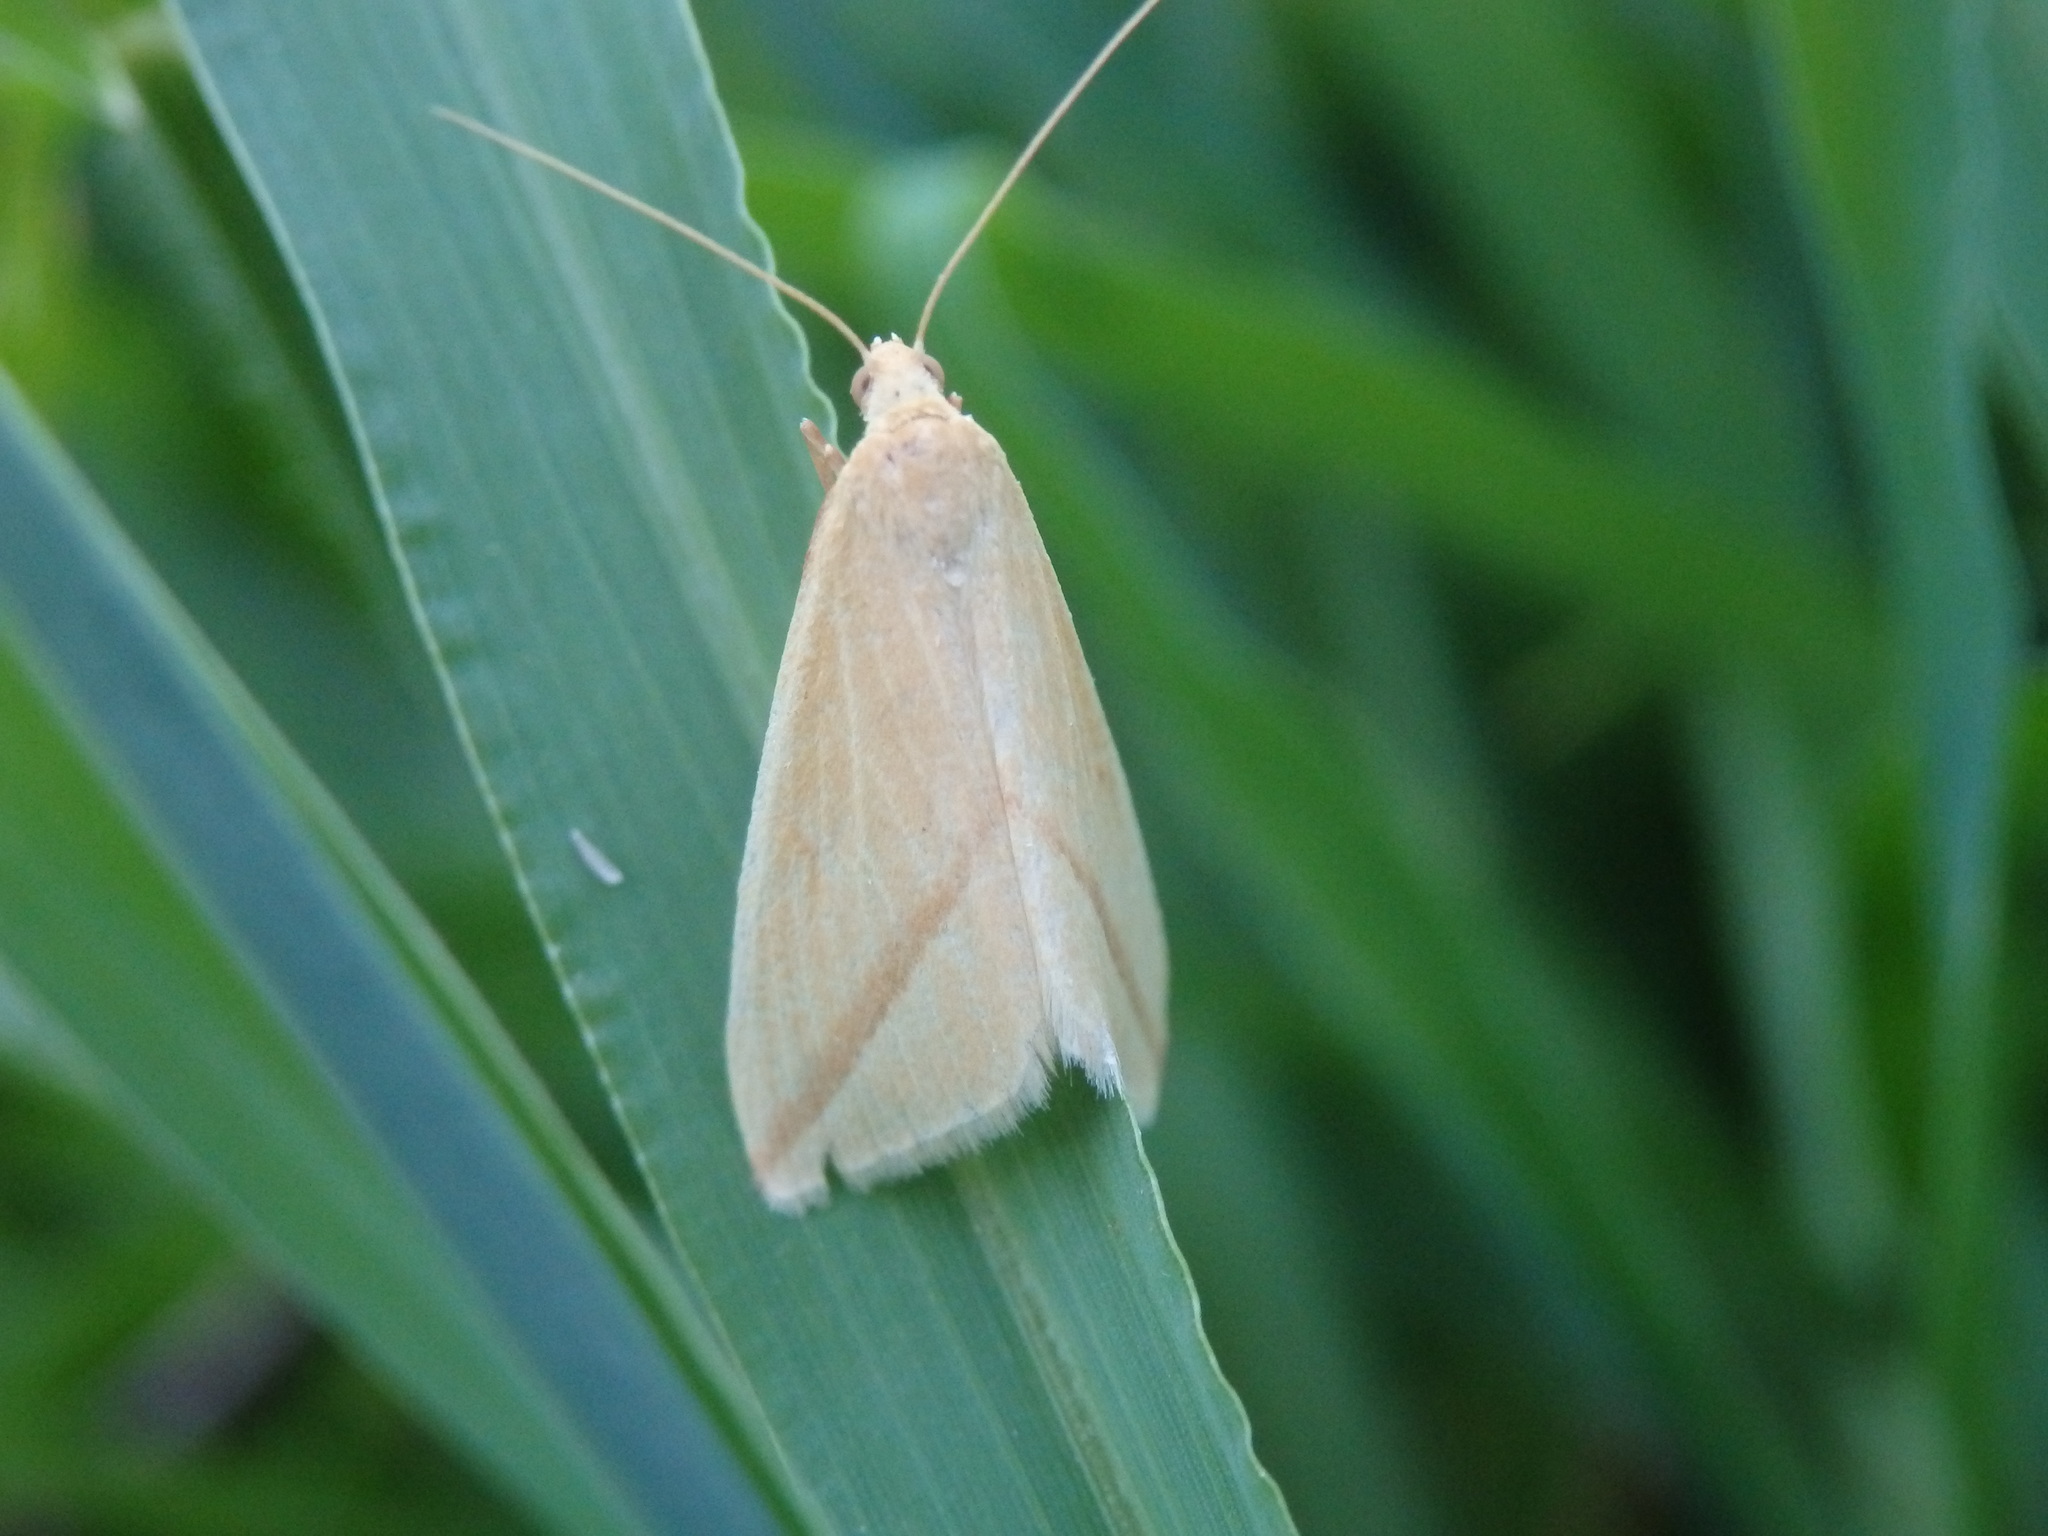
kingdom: Animalia
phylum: Arthropoda
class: Insecta
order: Lepidoptera
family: Geometridae
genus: Rhodometra
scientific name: Rhodometra sacraria
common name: Vestal
